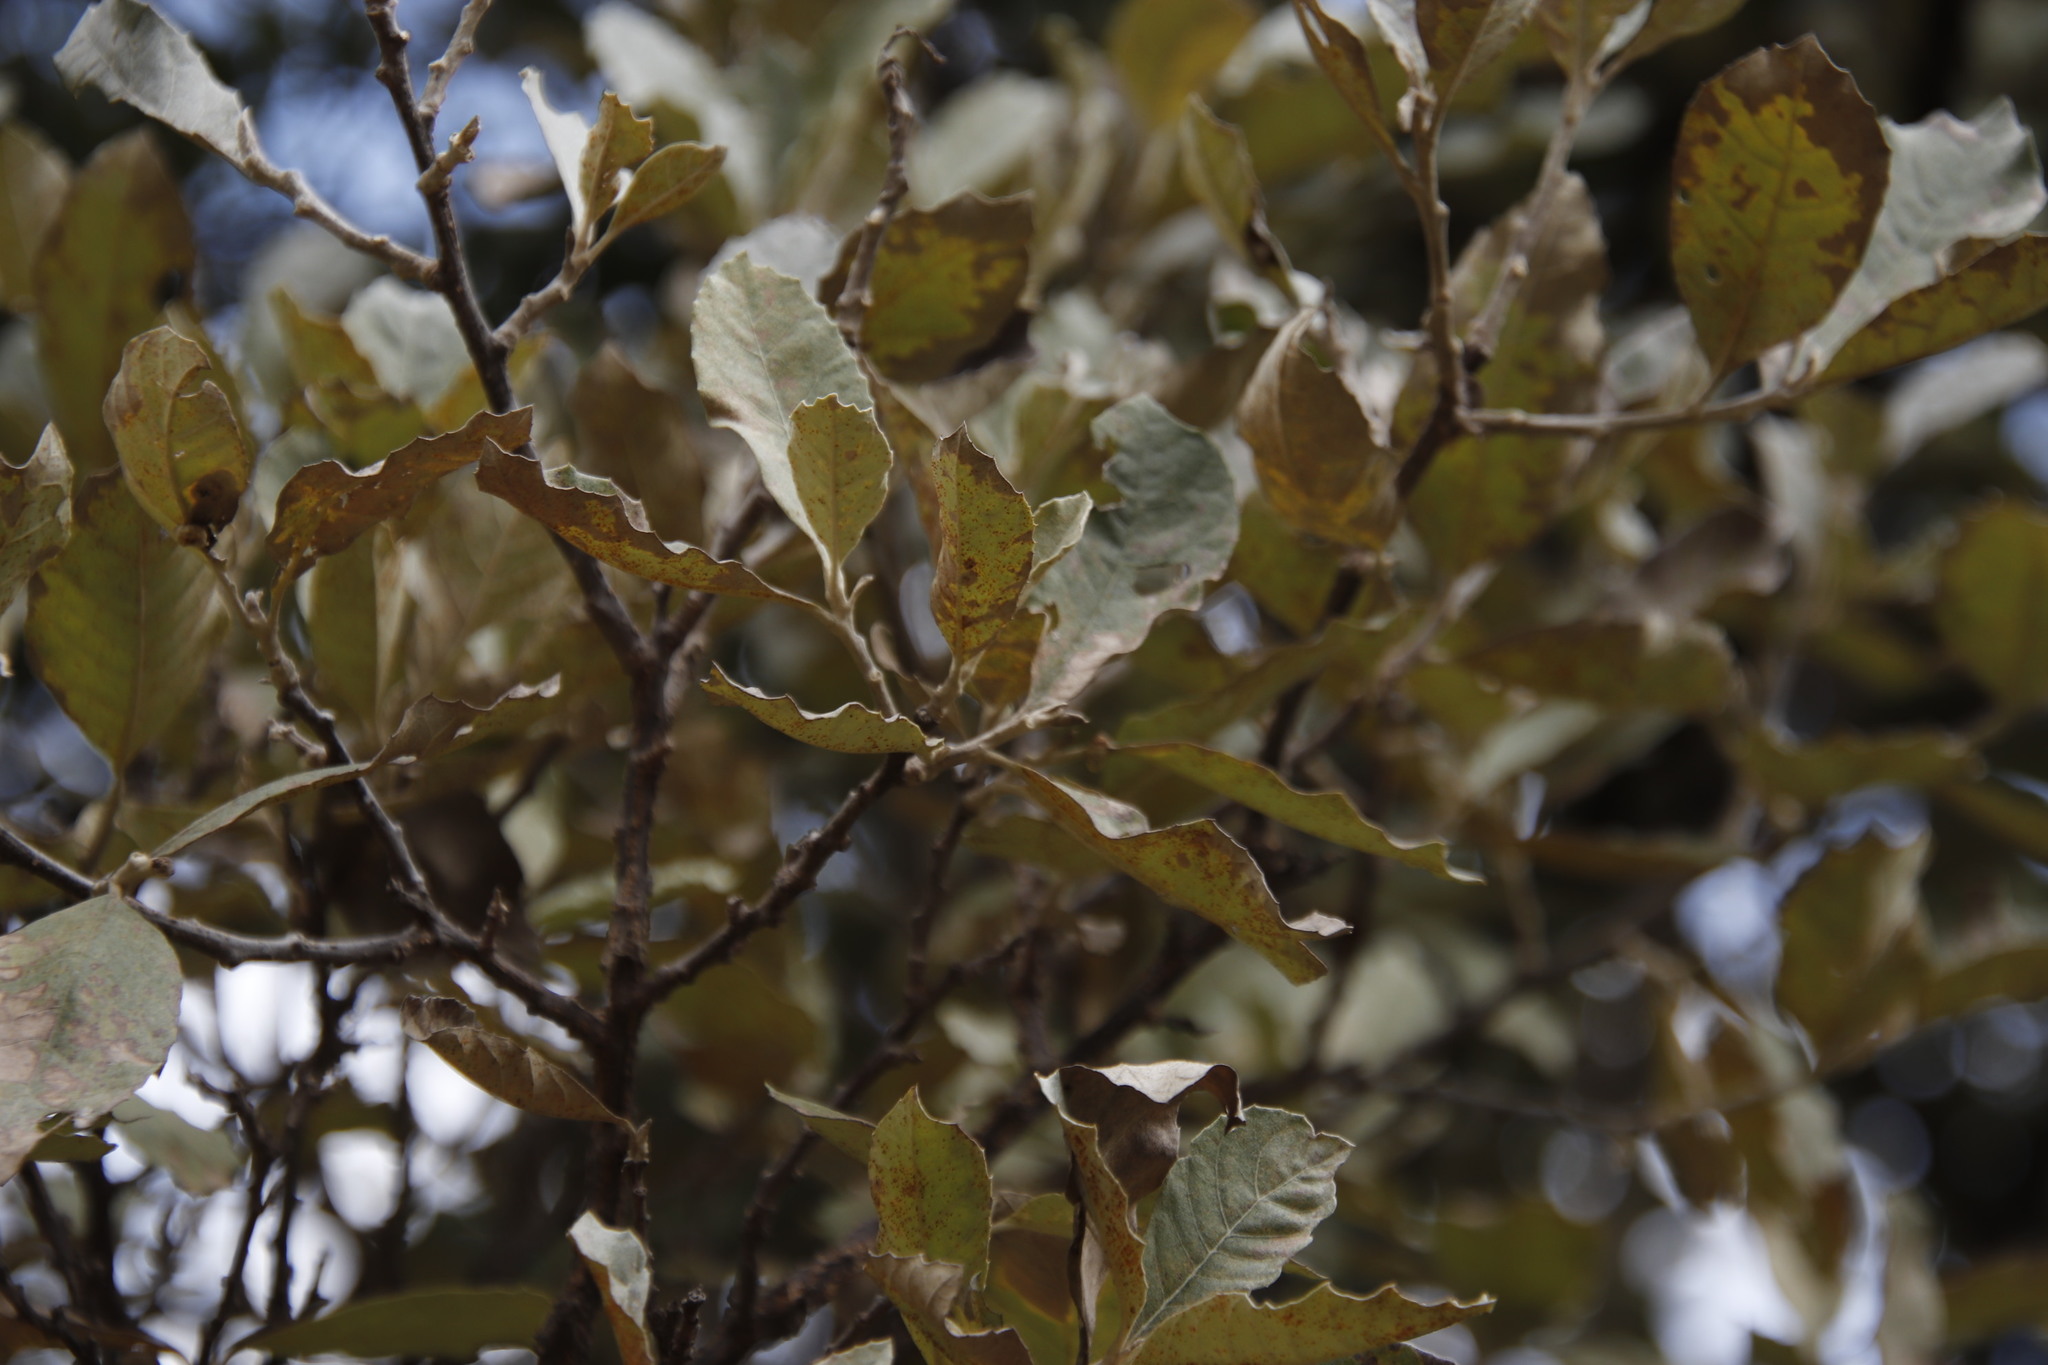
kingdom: Plantae
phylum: Tracheophyta
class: Magnoliopsida
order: Asterales
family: Asteraceae
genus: Brachylaena
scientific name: Brachylaena discolor
